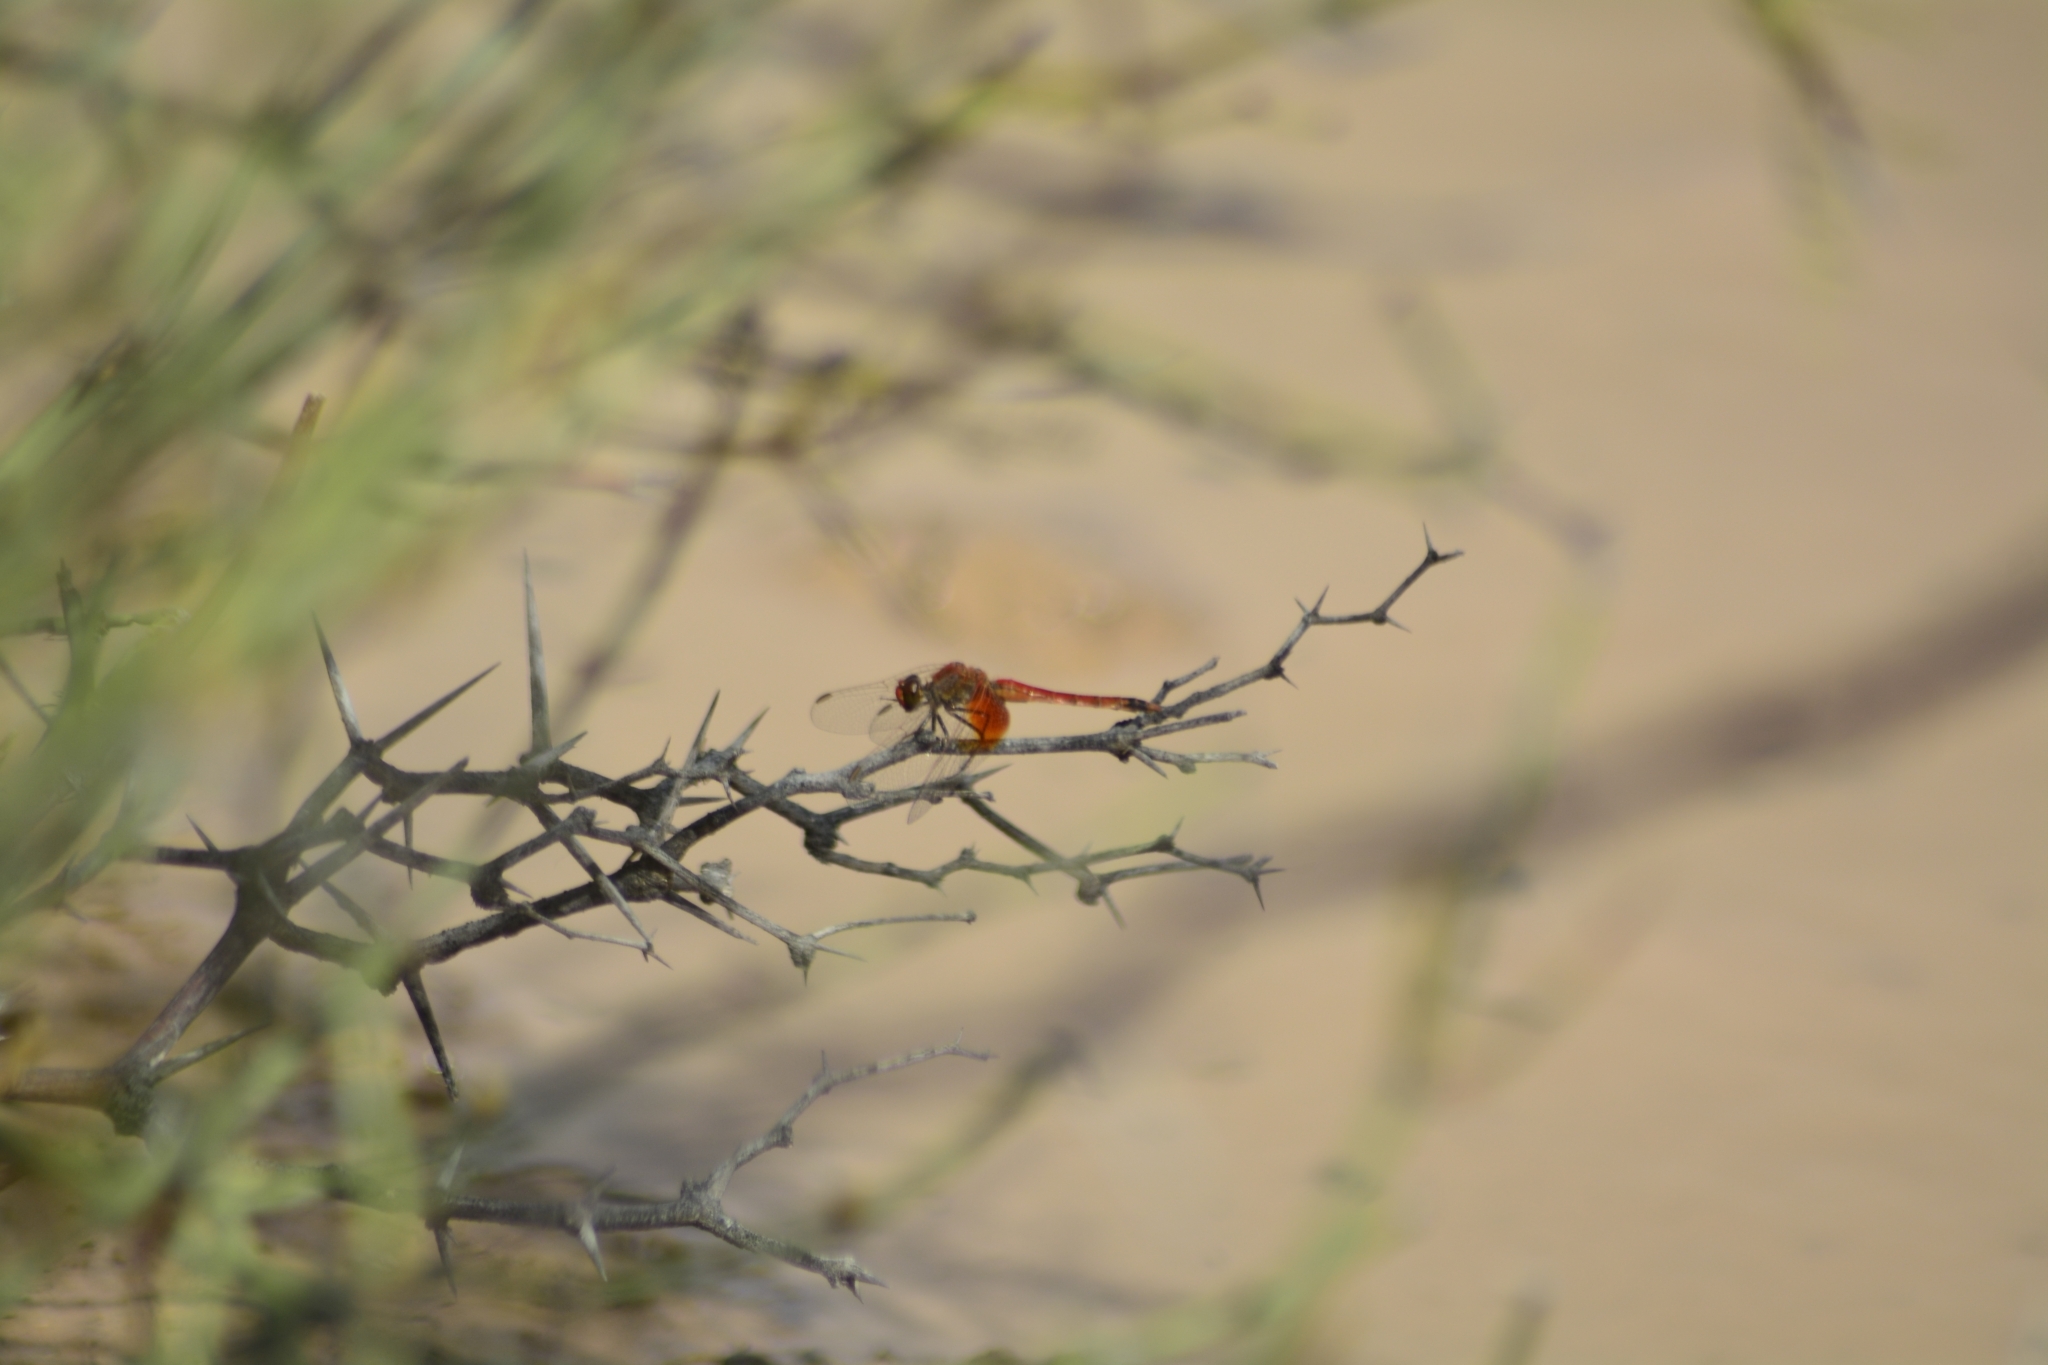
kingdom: Animalia
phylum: Arthropoda
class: Insecta
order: Odonata
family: Libellulidae
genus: Erythrodiplax
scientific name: Erythrodiplax corallina
